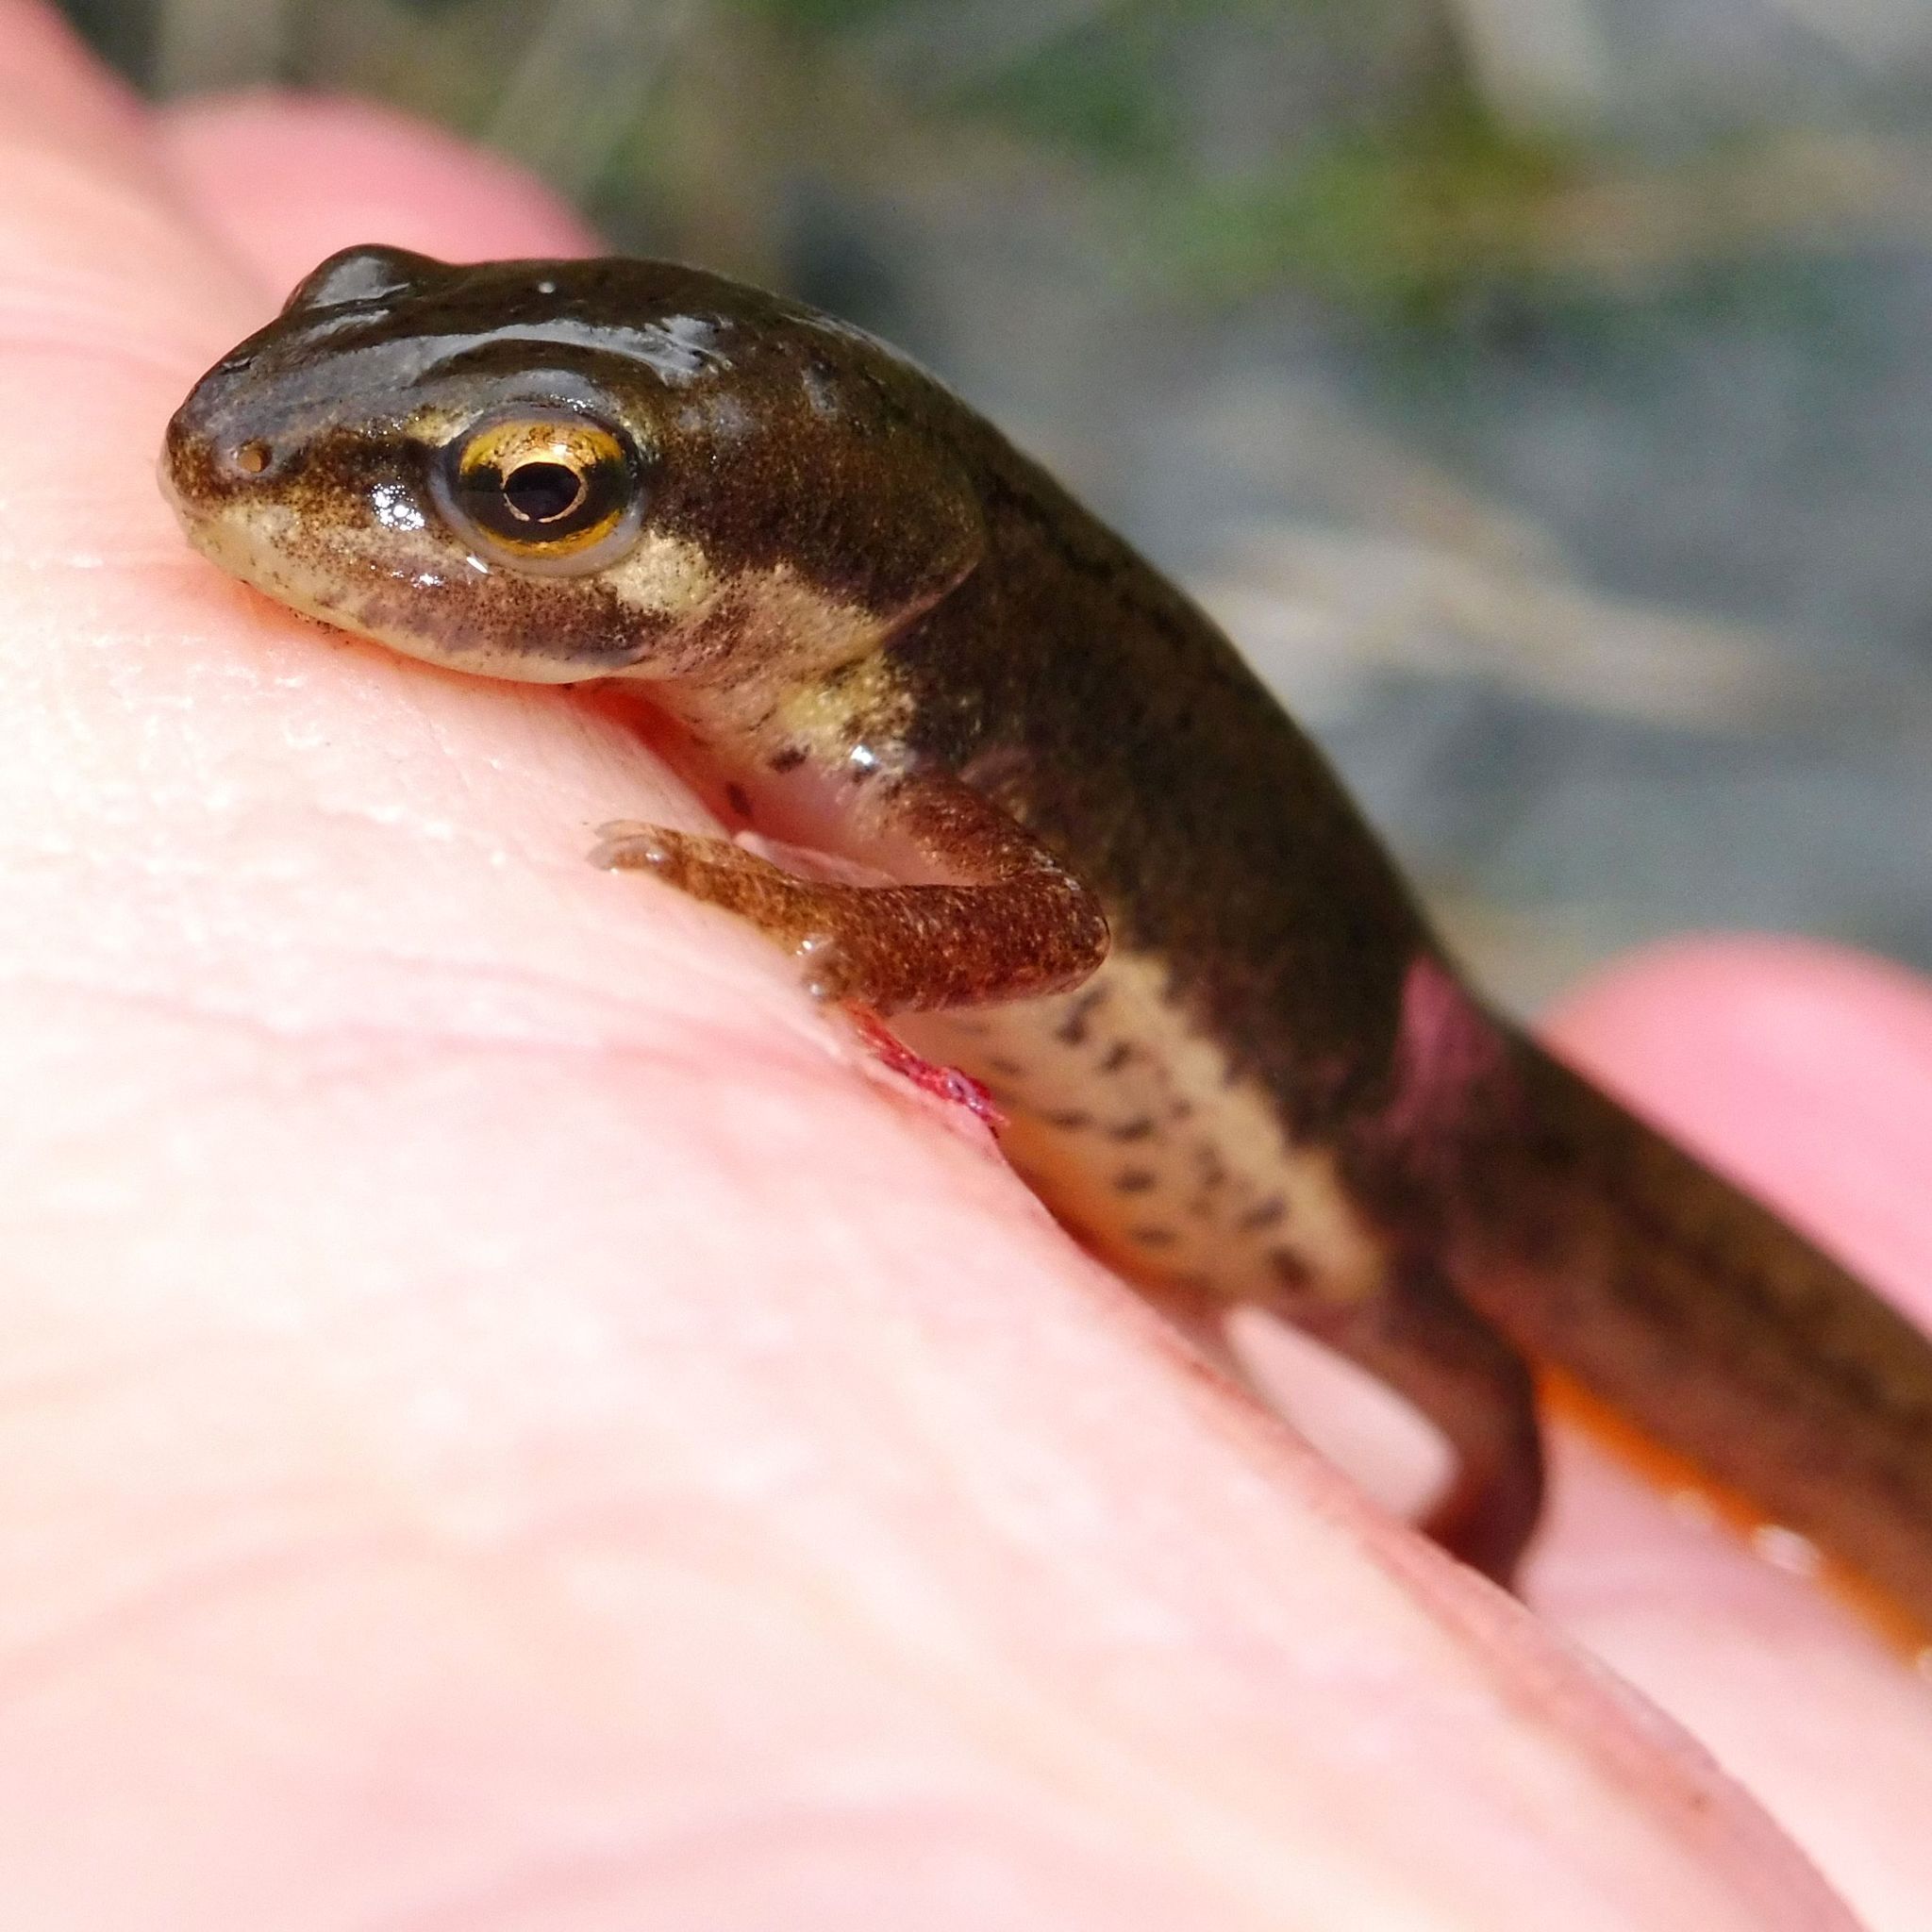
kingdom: Animalia
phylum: Chordata
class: Amphibia
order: Caudata
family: Salamandridae
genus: Lissotriton
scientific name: Lissotriton vulgaris
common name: Smooth newt
